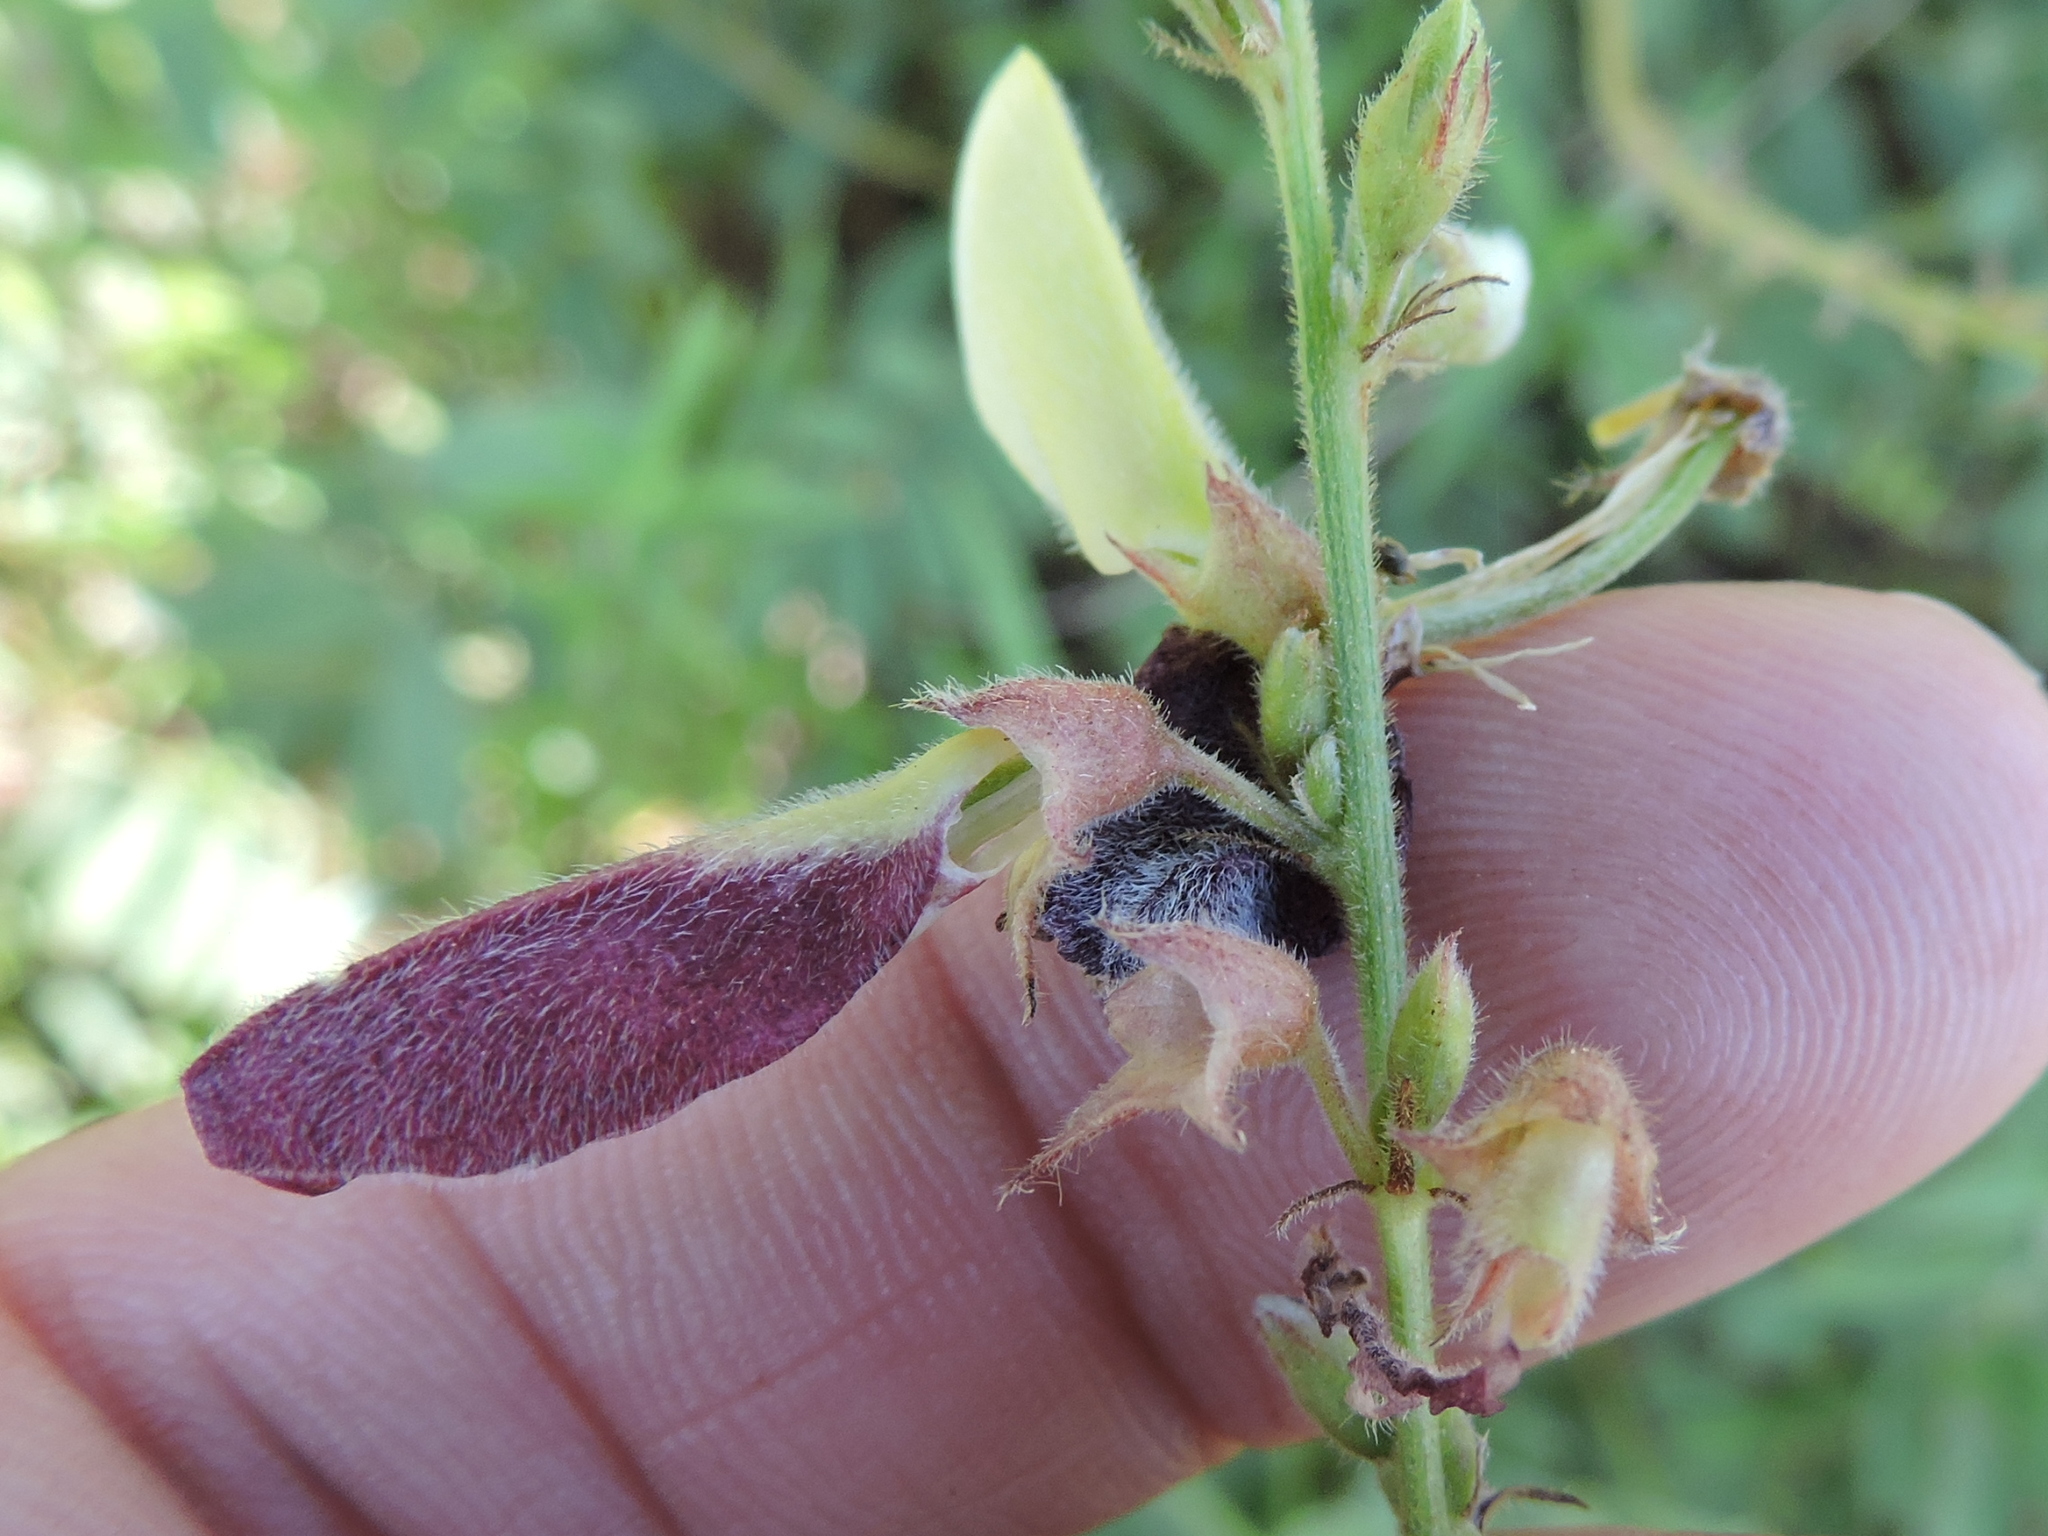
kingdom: Plantae
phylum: Tracheophyta
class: Magnoliopsida
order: Fabales
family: Fabaceae
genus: Tephrosia
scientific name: Tephrosia onobrychoides
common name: Multi-bloom hoary-pea
